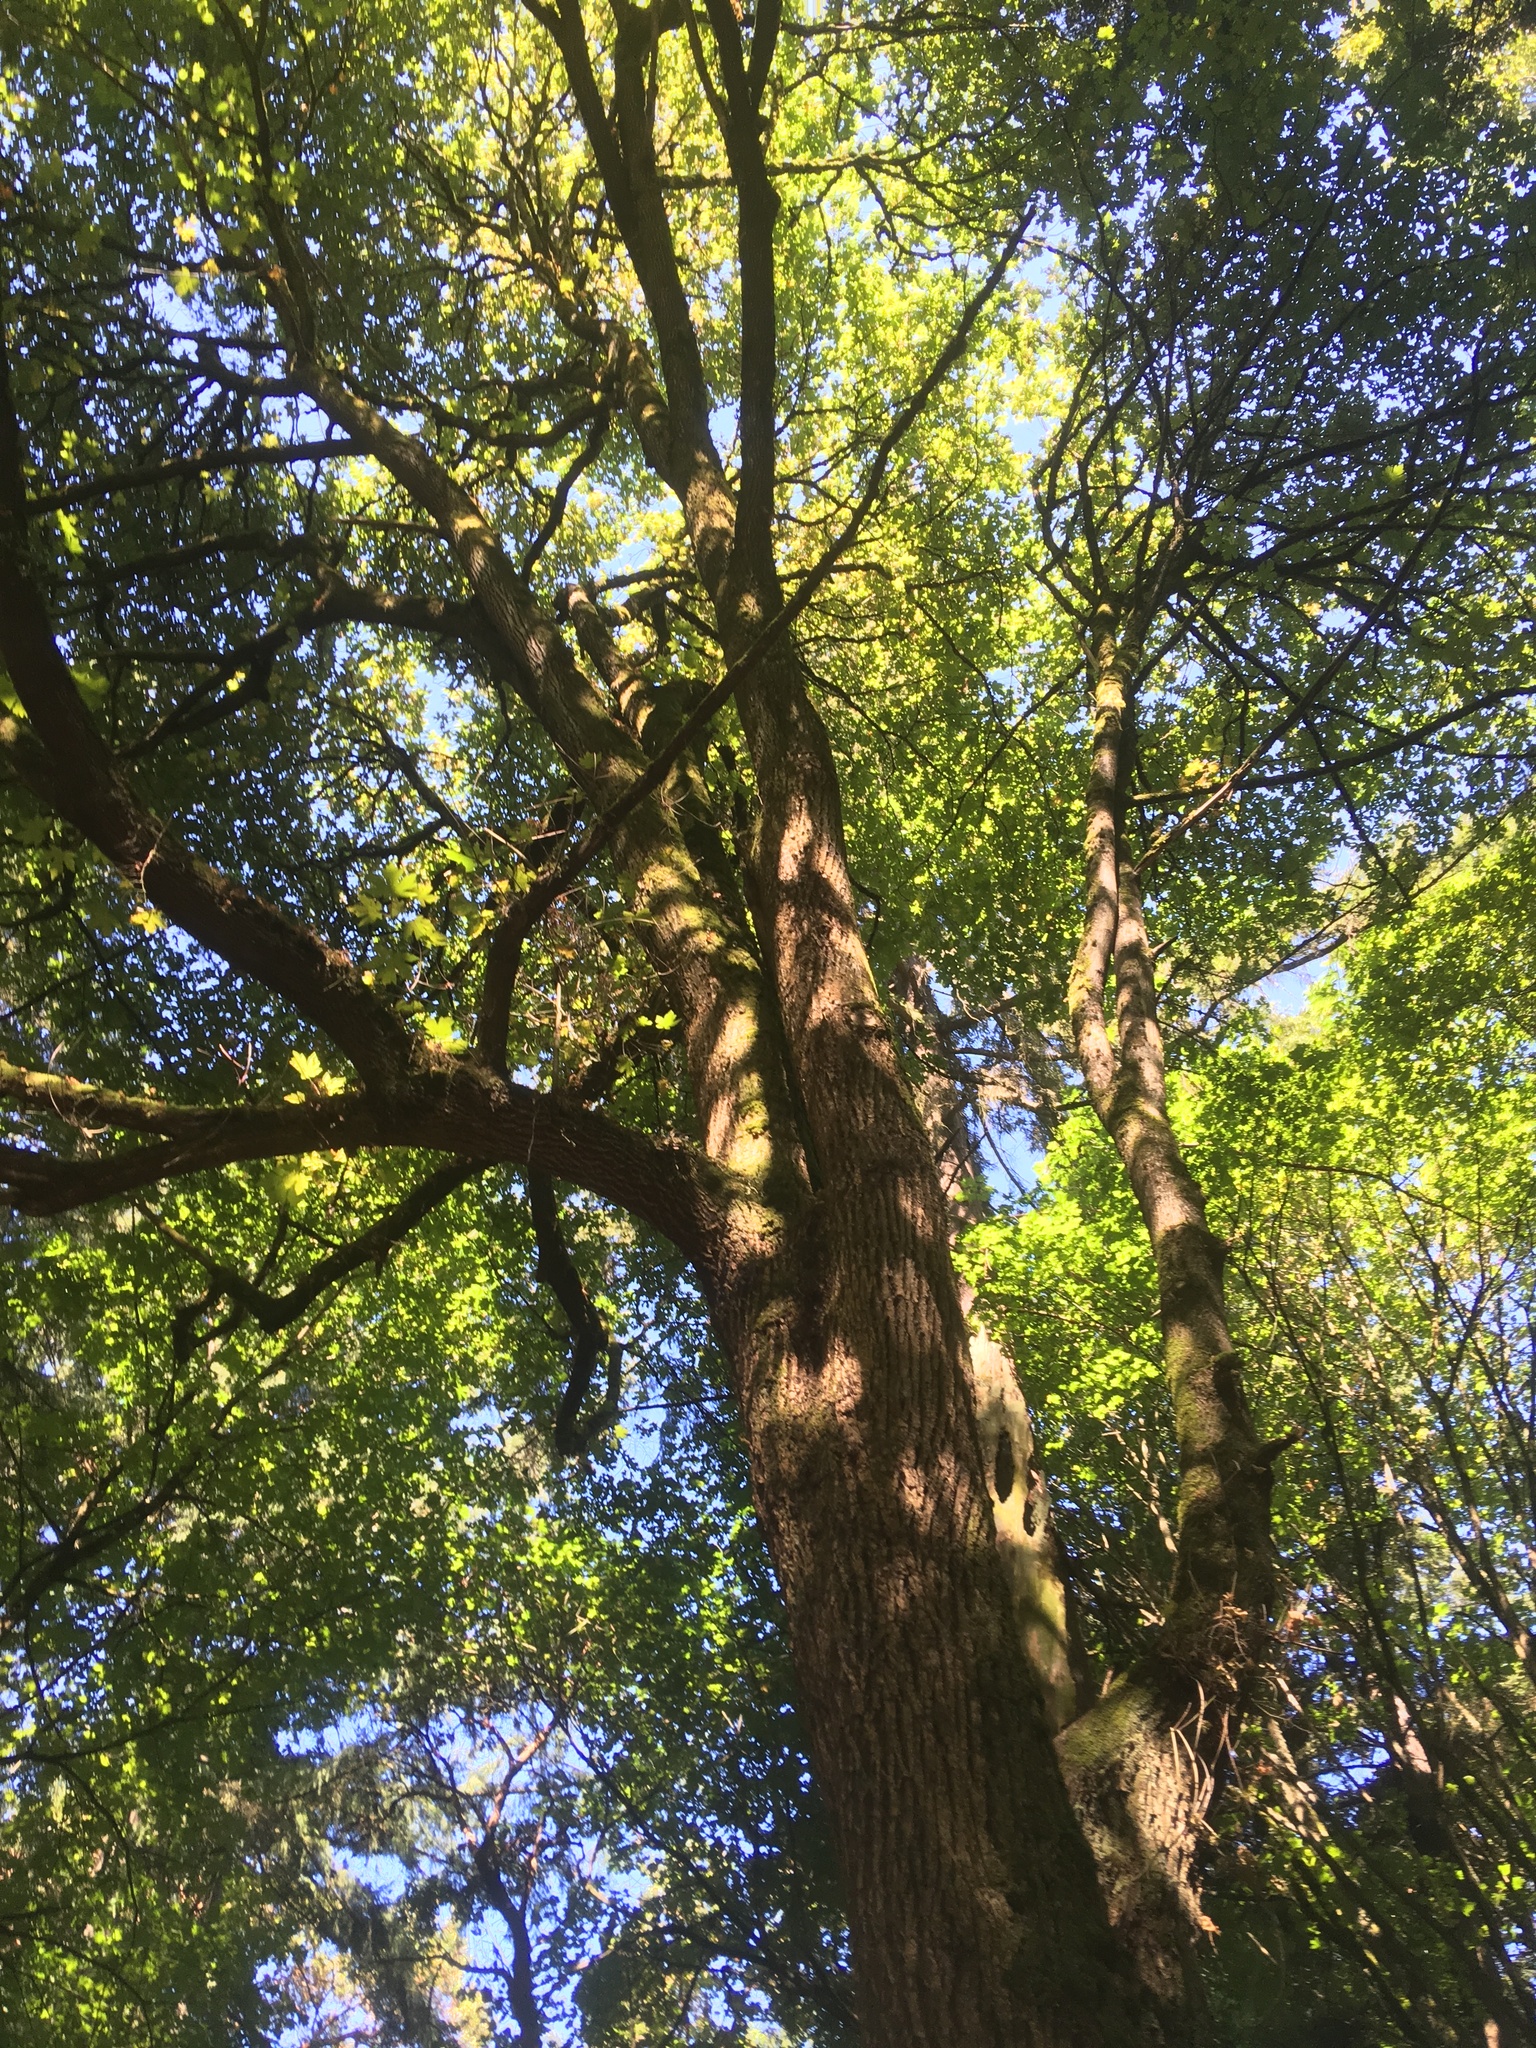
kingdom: Plantae
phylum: Tracheophyta
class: Magnoliopsida
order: Sapindales
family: Sapindaceae
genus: Acer
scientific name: Acer macrophyllum
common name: Oregon maple
